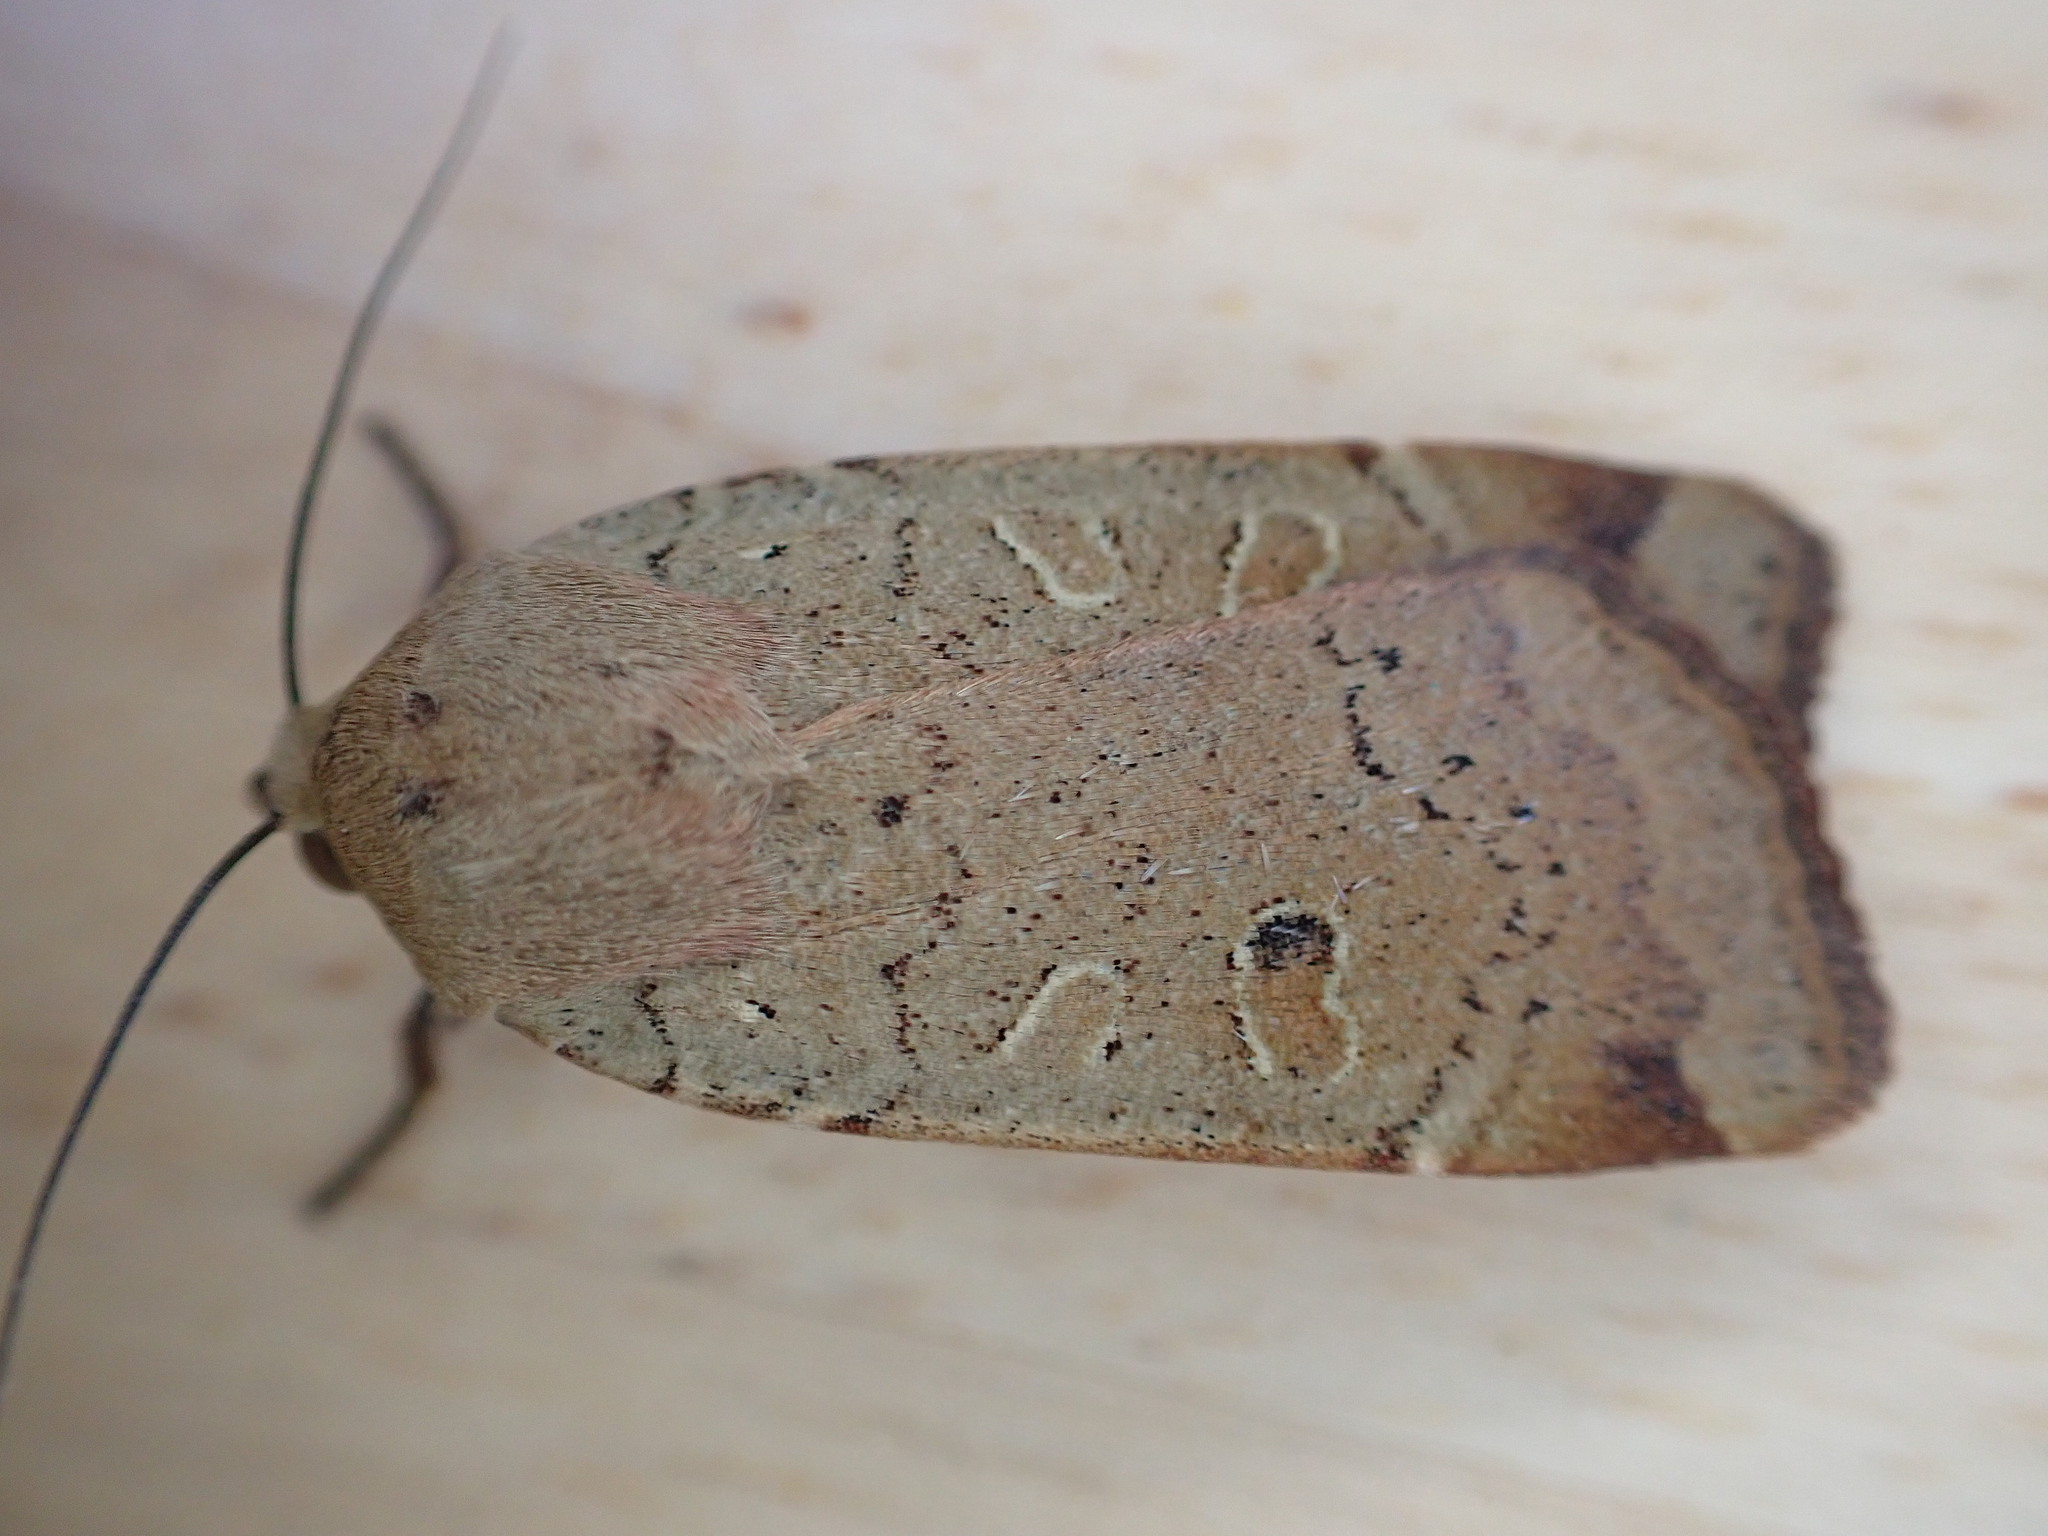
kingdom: Animalia
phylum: Arthropoda
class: Insecta
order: Lepidoptera
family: Noctuidae
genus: Noctua
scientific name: Noctua comes
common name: Lesser yellow underwing
